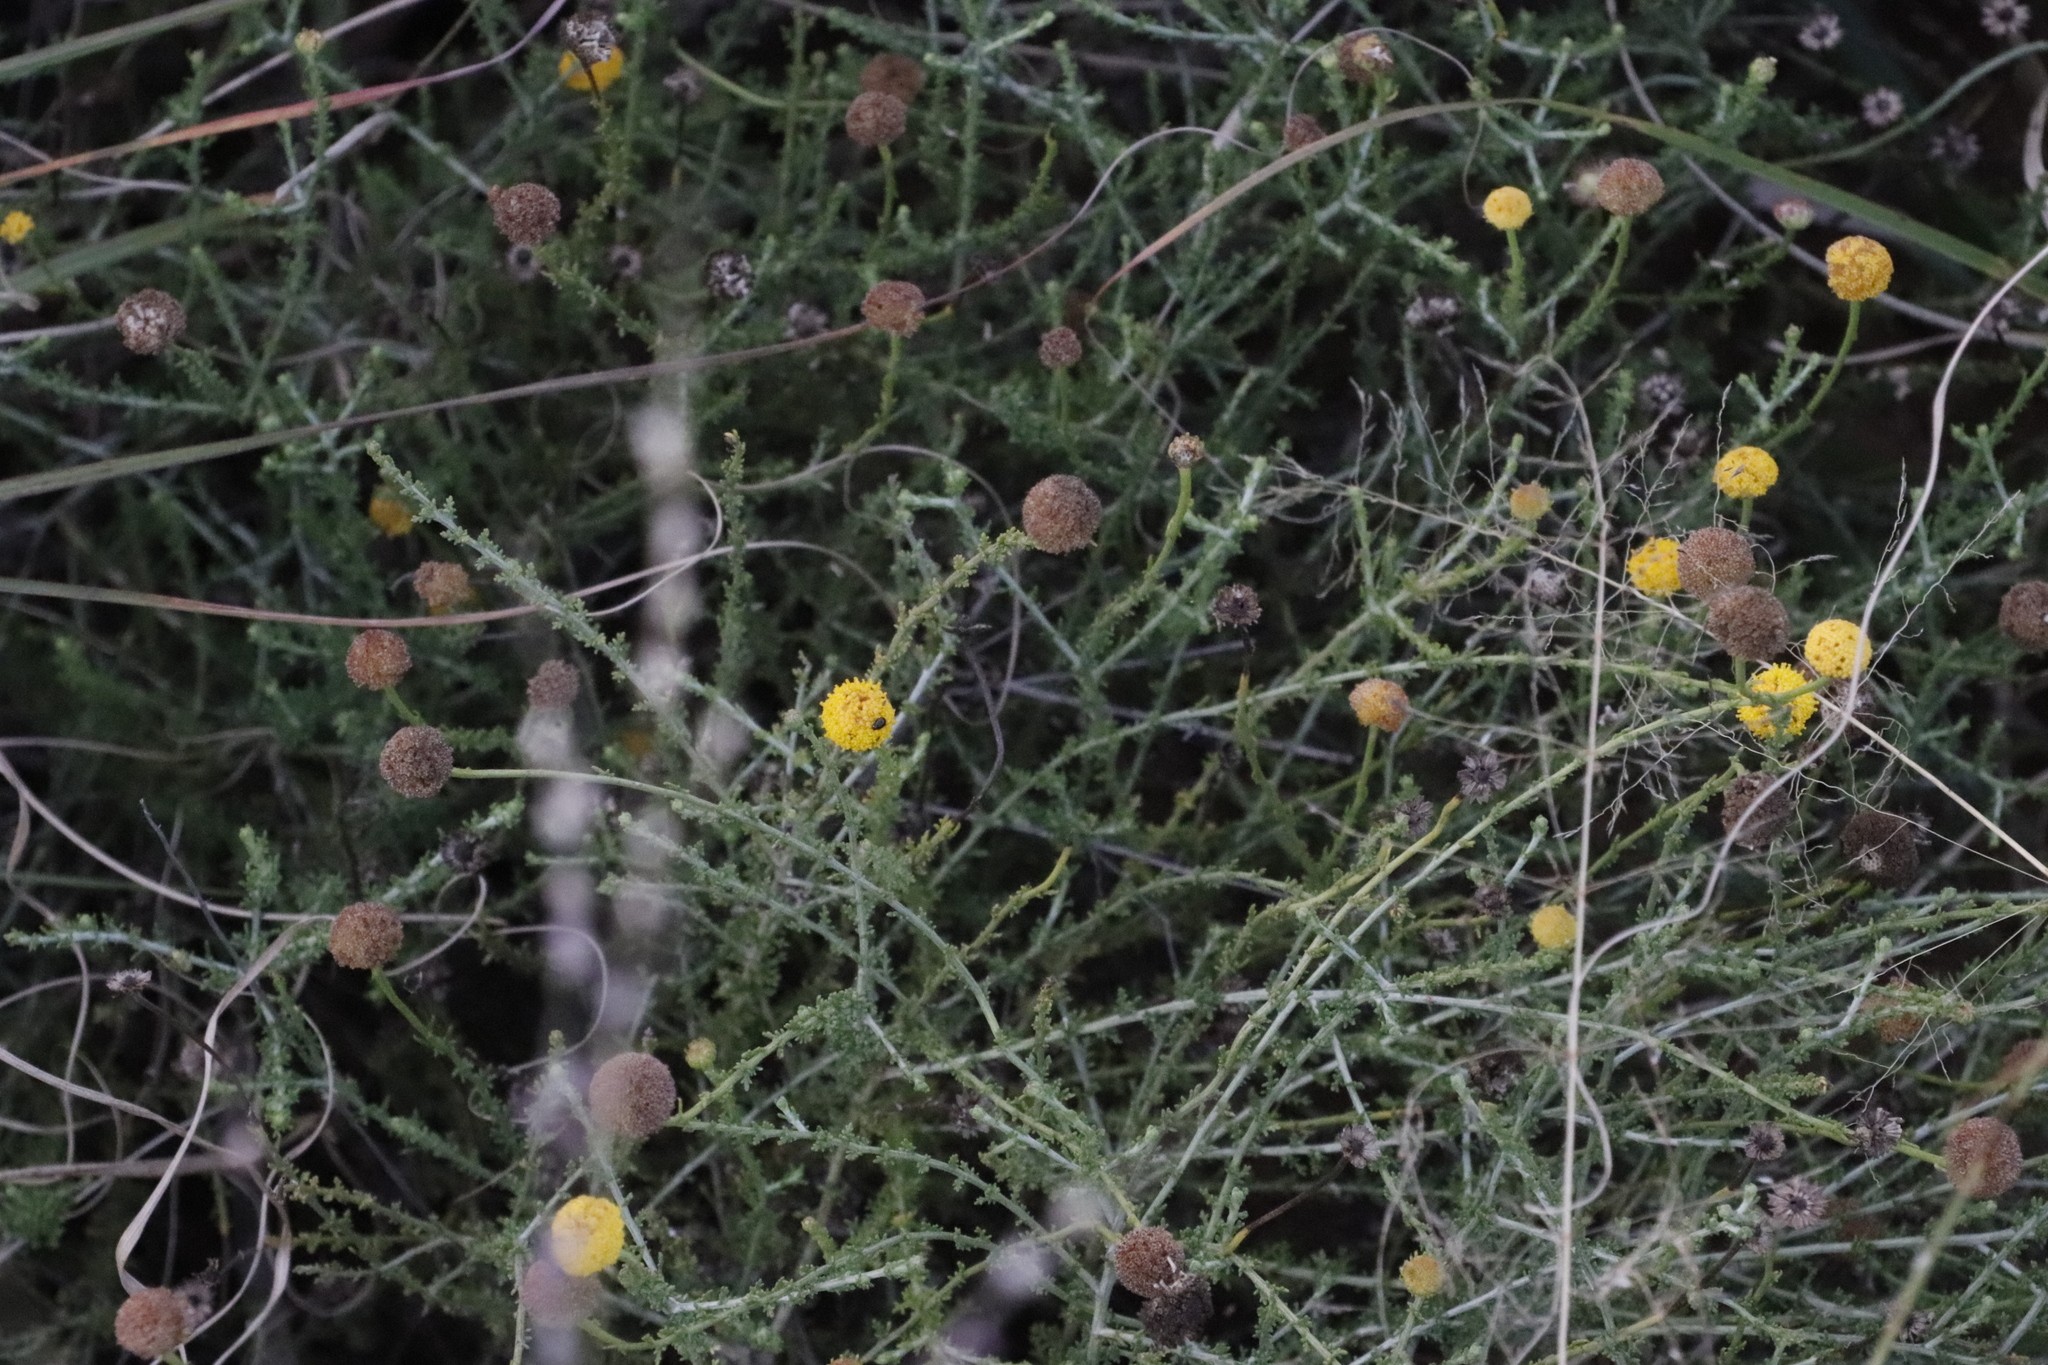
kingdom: Plantae
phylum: Tracheophyta
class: Magnoliopsida
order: Asterales
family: Asteraceae
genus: Pentzia
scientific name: Pentzia incana
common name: African sheepbush
